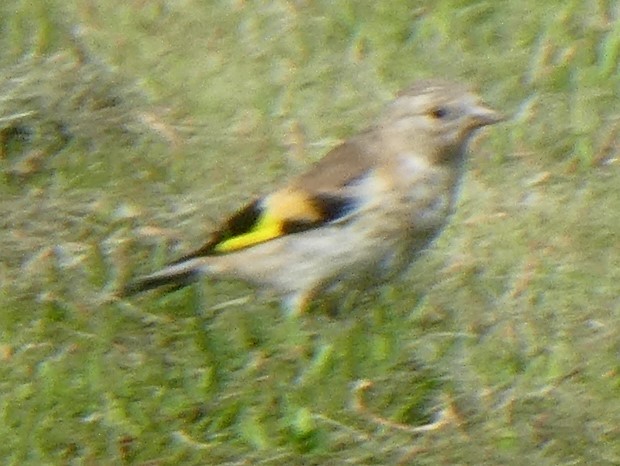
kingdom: Animalia
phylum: Chordata
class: Aves
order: Passeriformes
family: Fringillidae
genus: Carduelis
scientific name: Carduelis carduelis
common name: European goldfinch
